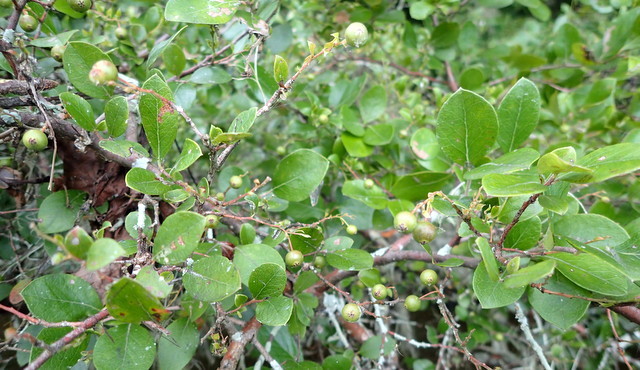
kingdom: Plantae
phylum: Tracheophyta
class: Magnoliopsida
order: Ericales
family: Ericaceae
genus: Vaccinium
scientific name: Vaccinium arboreum
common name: Farkleberry
